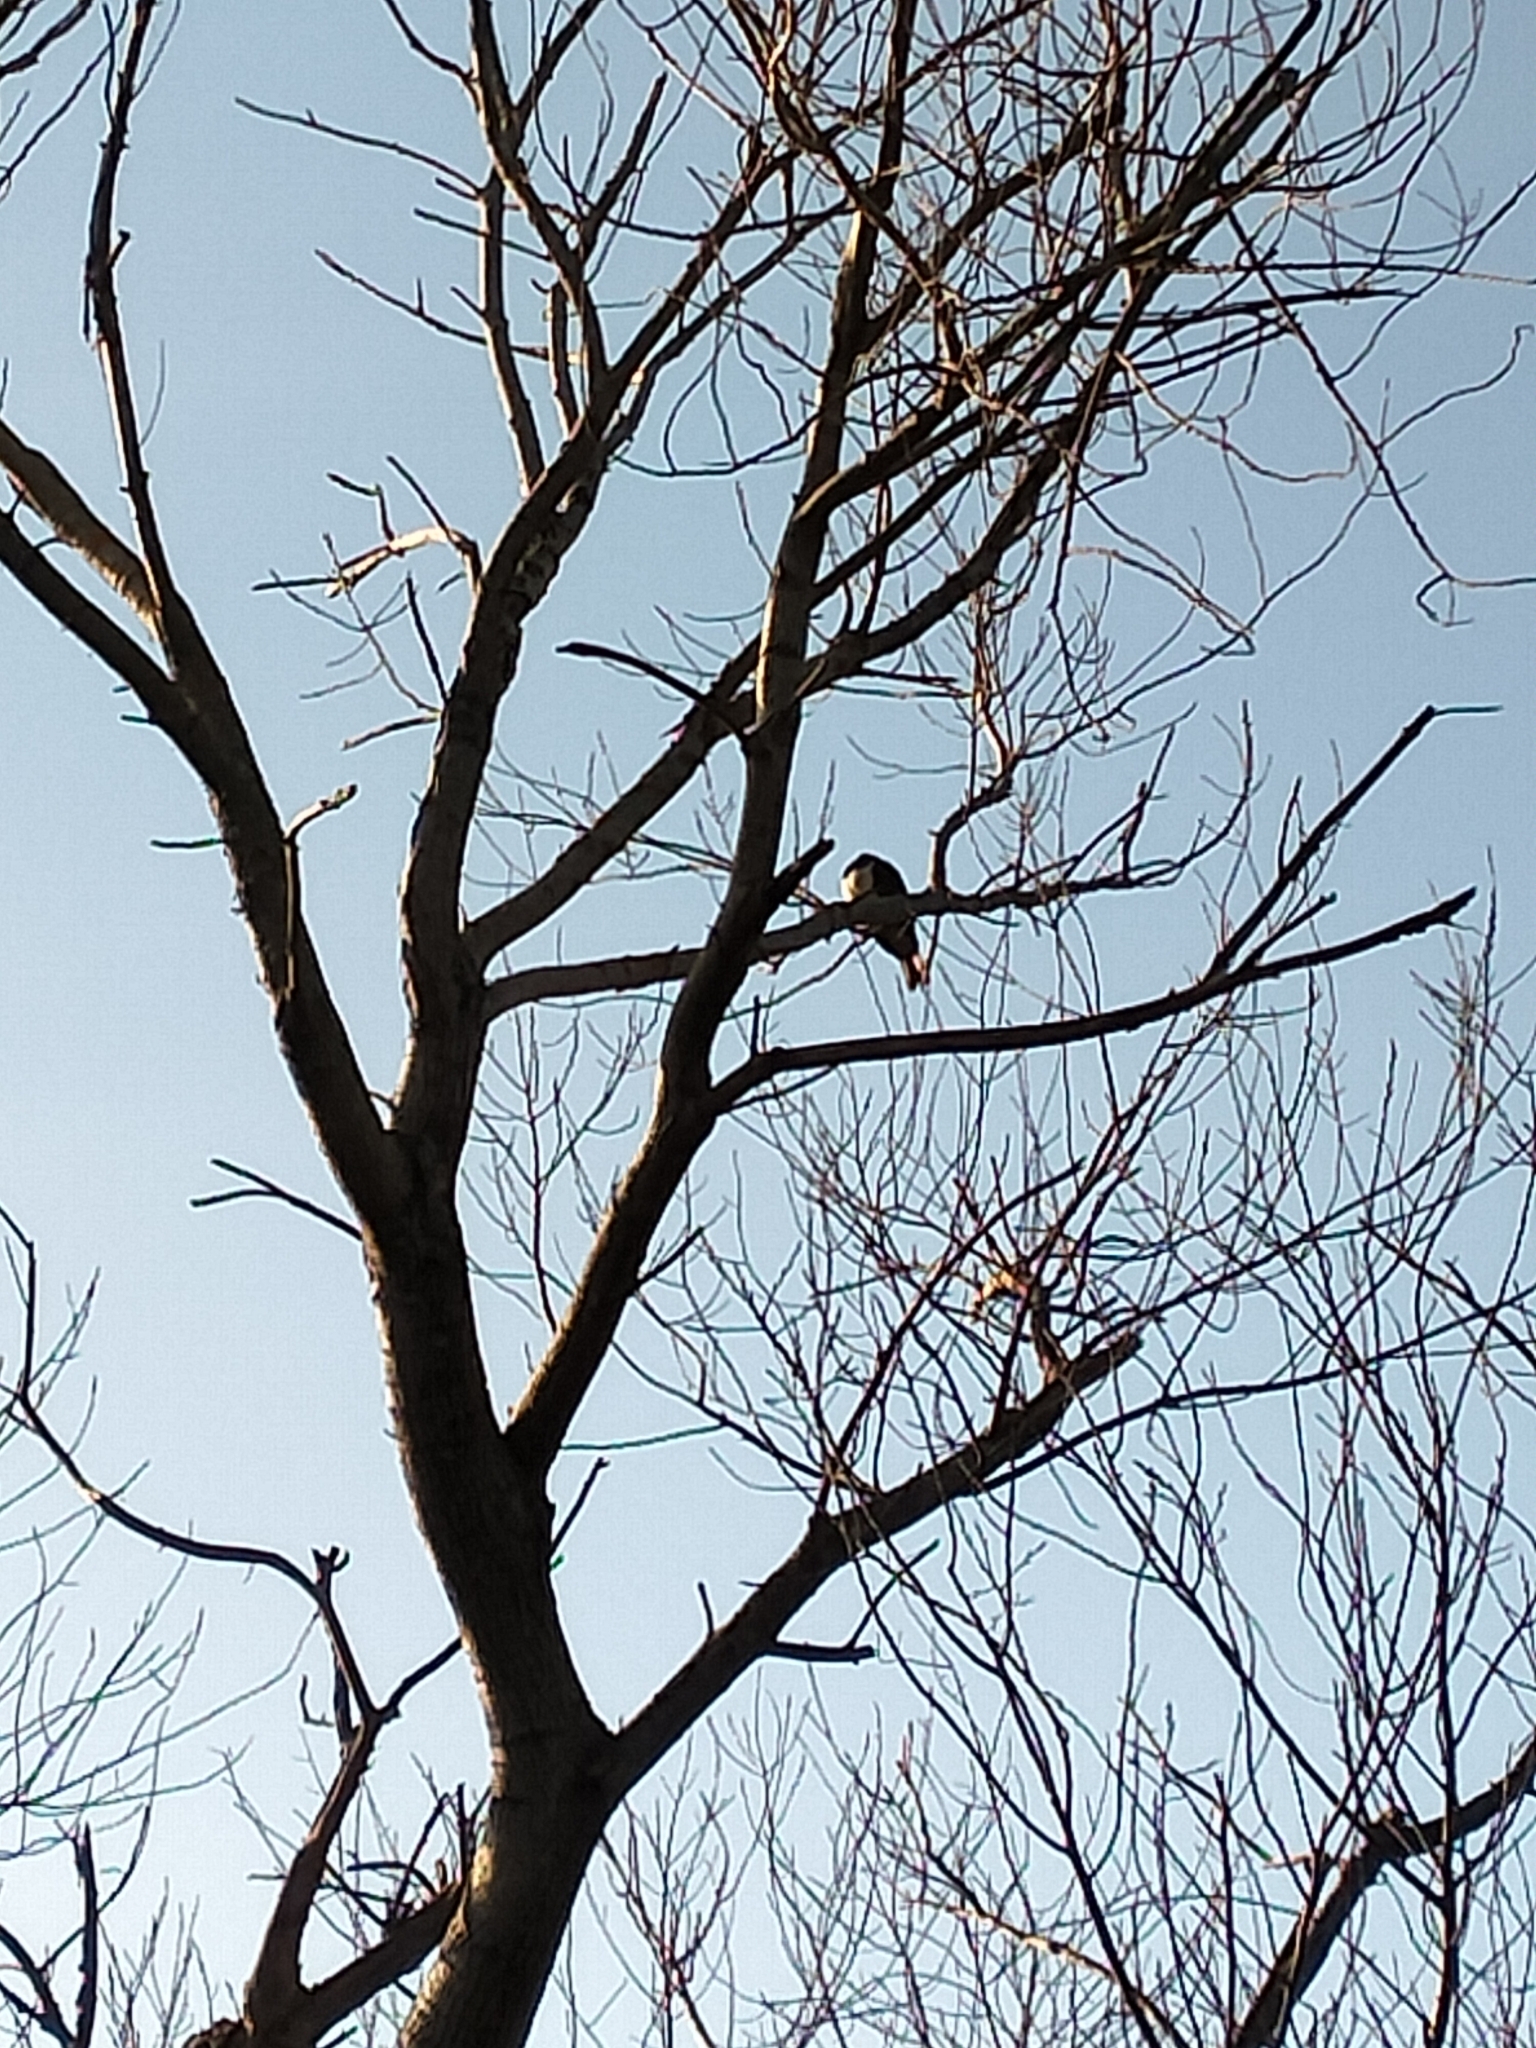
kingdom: Animalia
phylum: Chordata
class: Aves
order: Columbiformes
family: Columbidae
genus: Hemiphaga
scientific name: Hemiphaga novaeseelandiae
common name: New zealand pigeon
